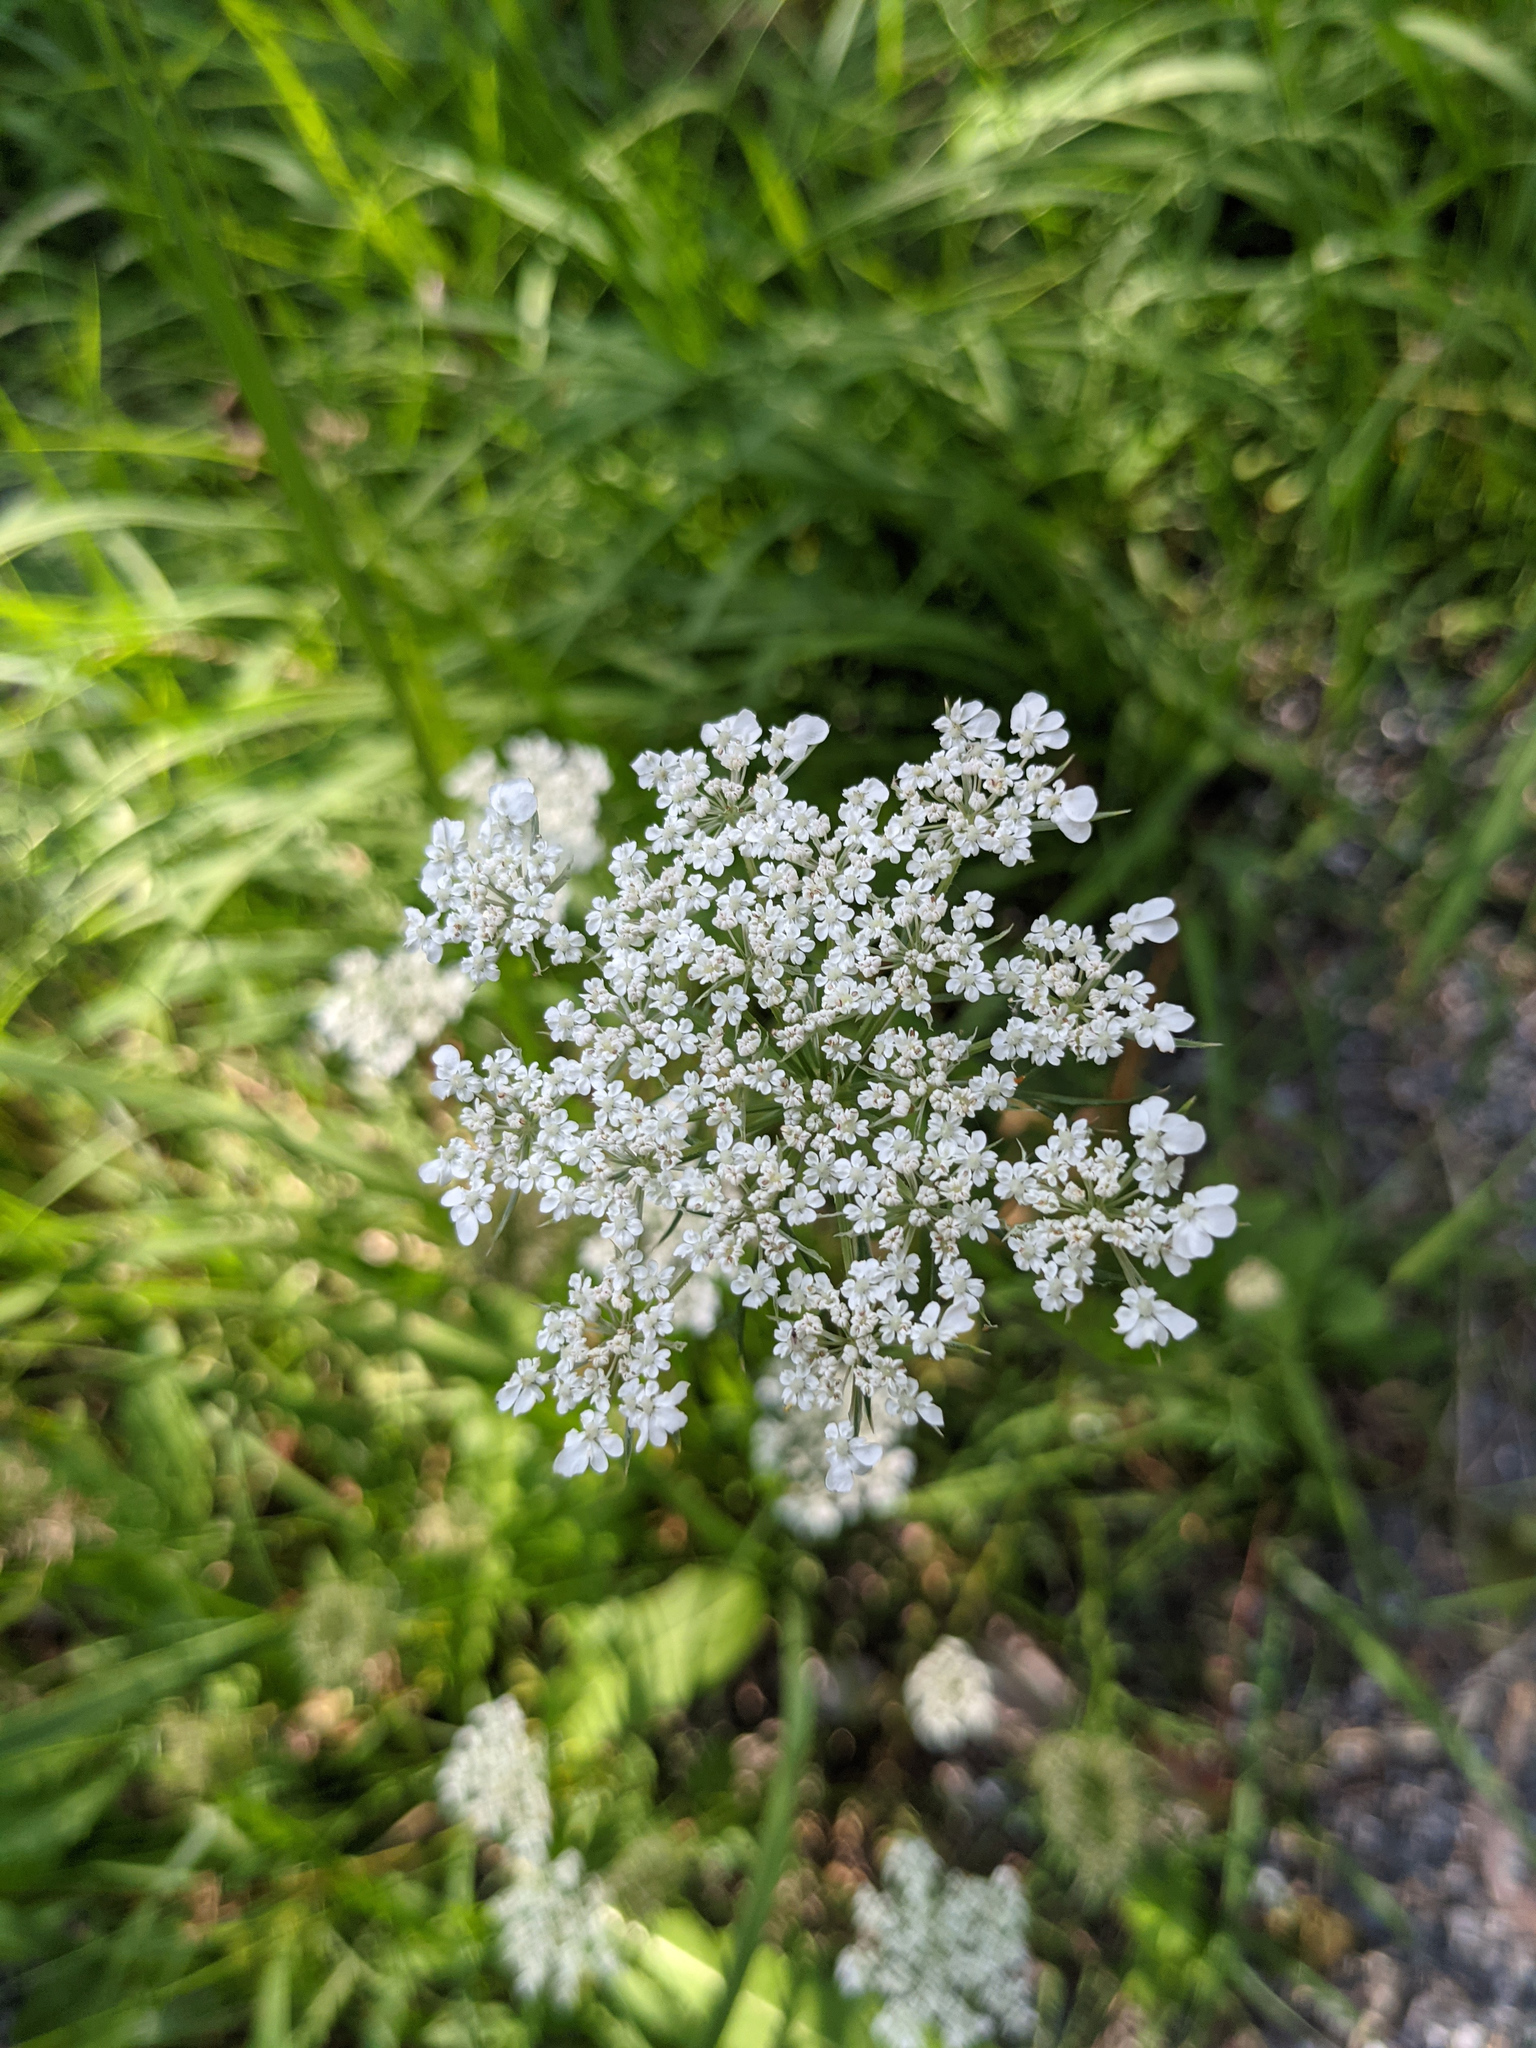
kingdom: Plantae
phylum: Tracheophyta
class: Magnoliopsida
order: Apiales
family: Apiaceae
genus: Daucus
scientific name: Daucus carota
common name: Wild carrot
